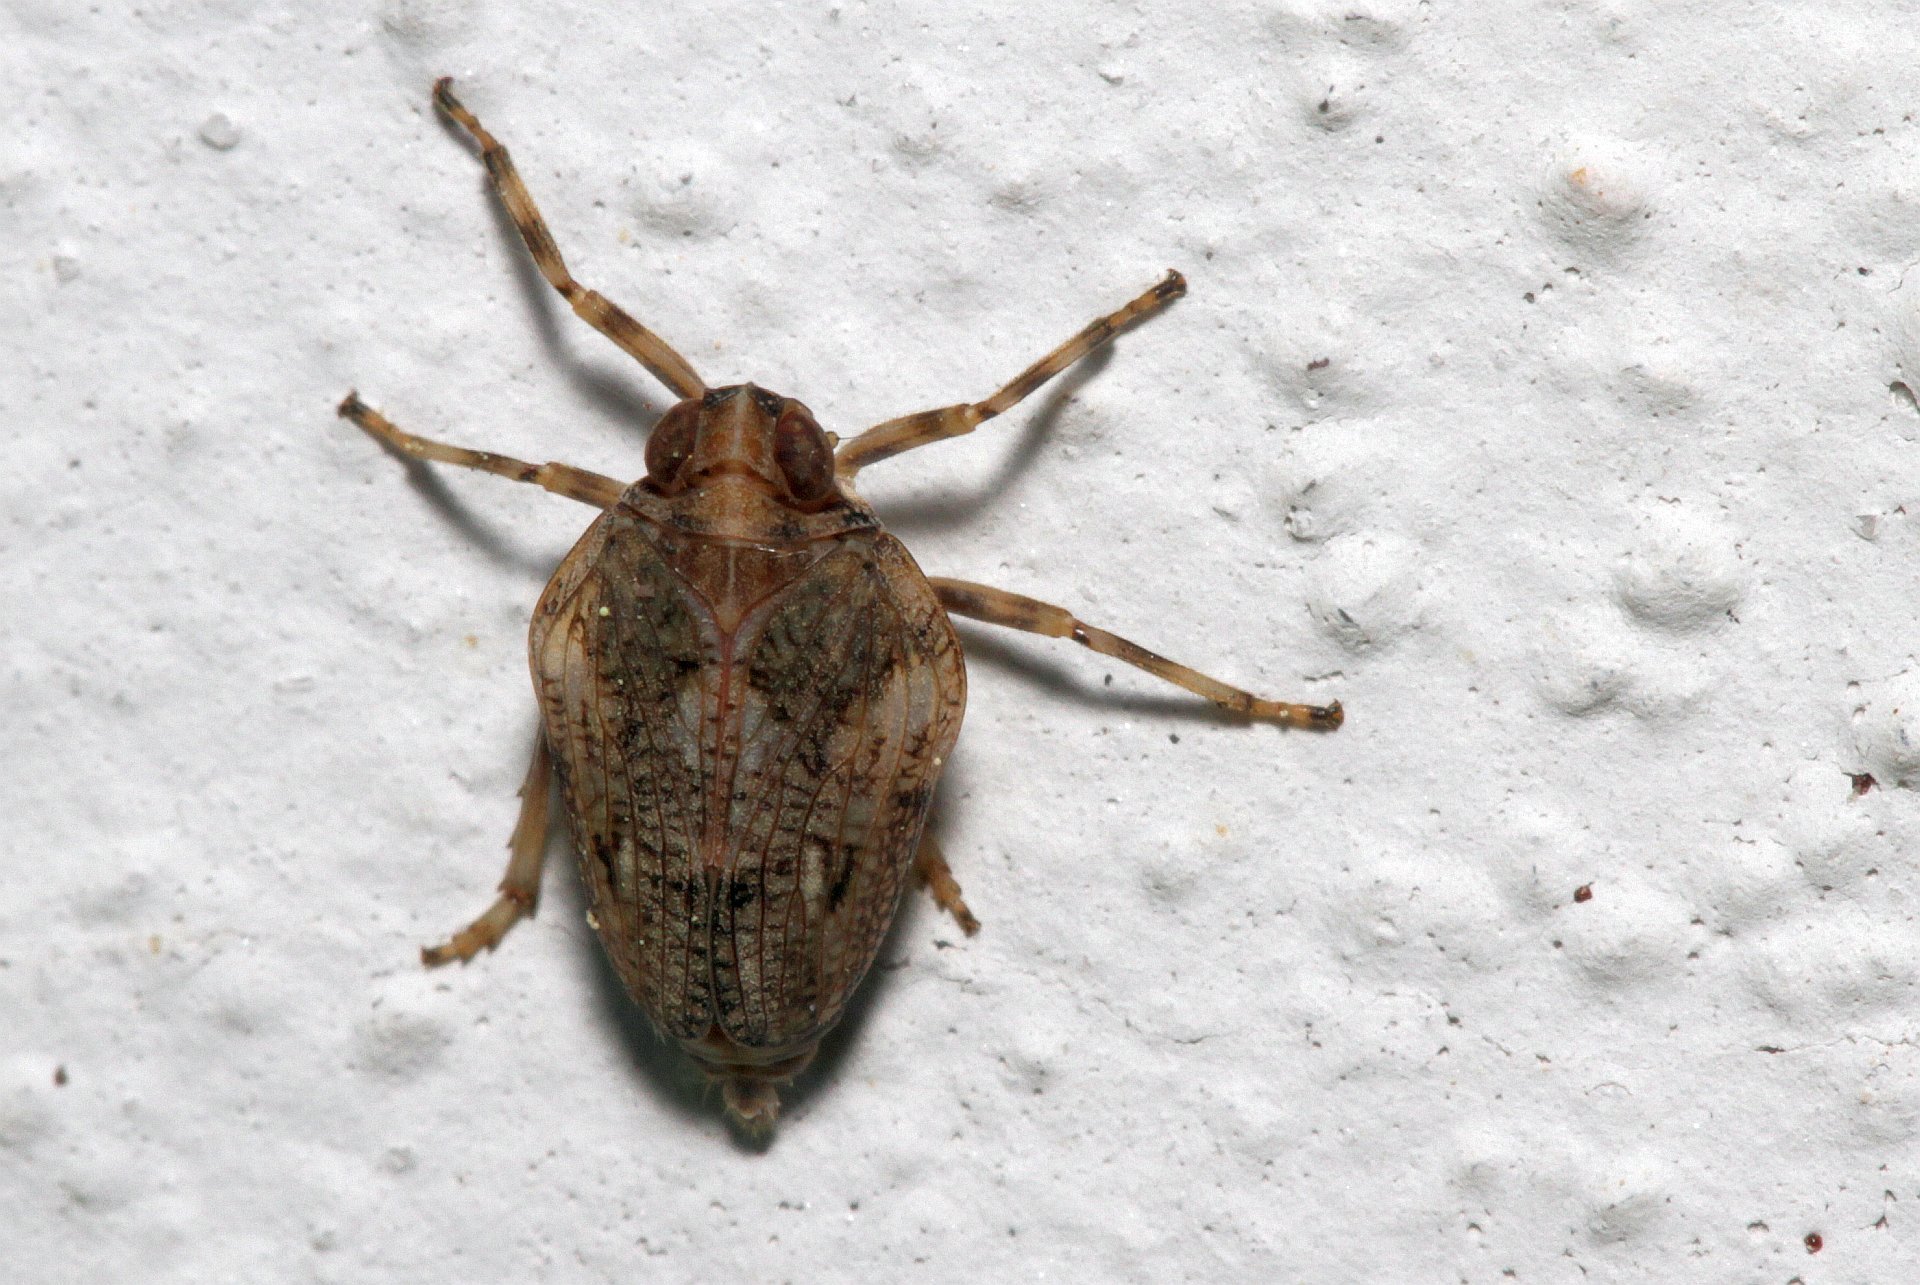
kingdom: Animalia
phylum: Arthropoda
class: Insecta
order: Hemiptera
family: Issidae
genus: Issus
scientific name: Issus coleoptratus
